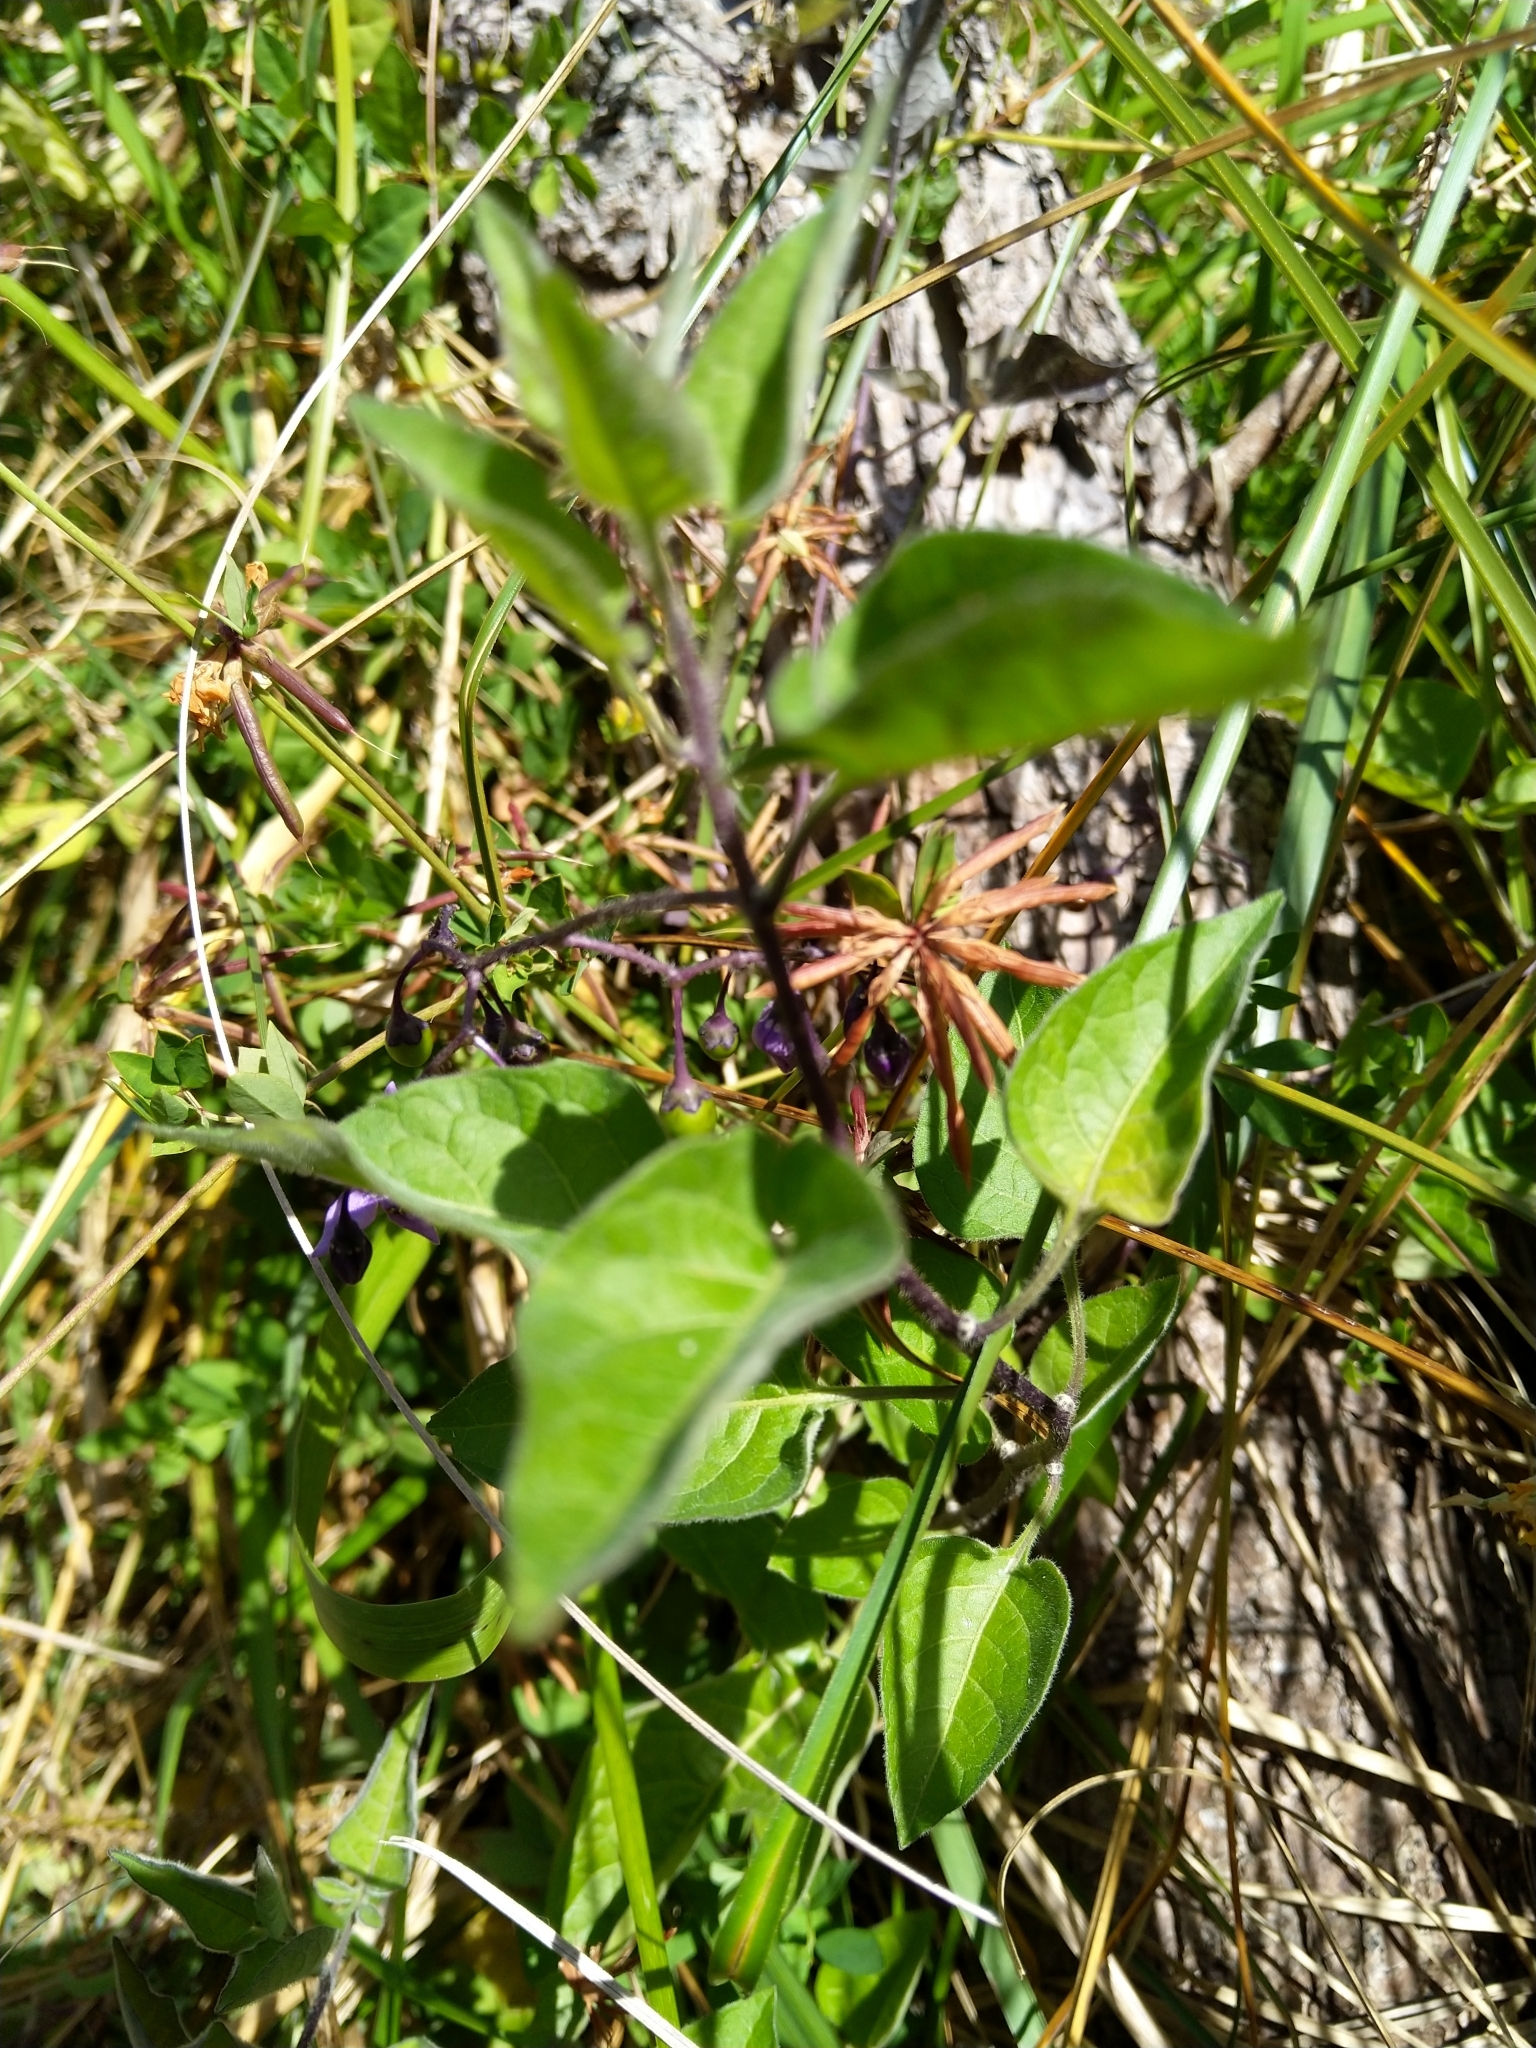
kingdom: Plantae
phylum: Tracheophyta
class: Magnoliopsida
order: Solanales
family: Solanaceae
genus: Solanum
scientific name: Solanum dulcamara
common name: Climbing nightshade
